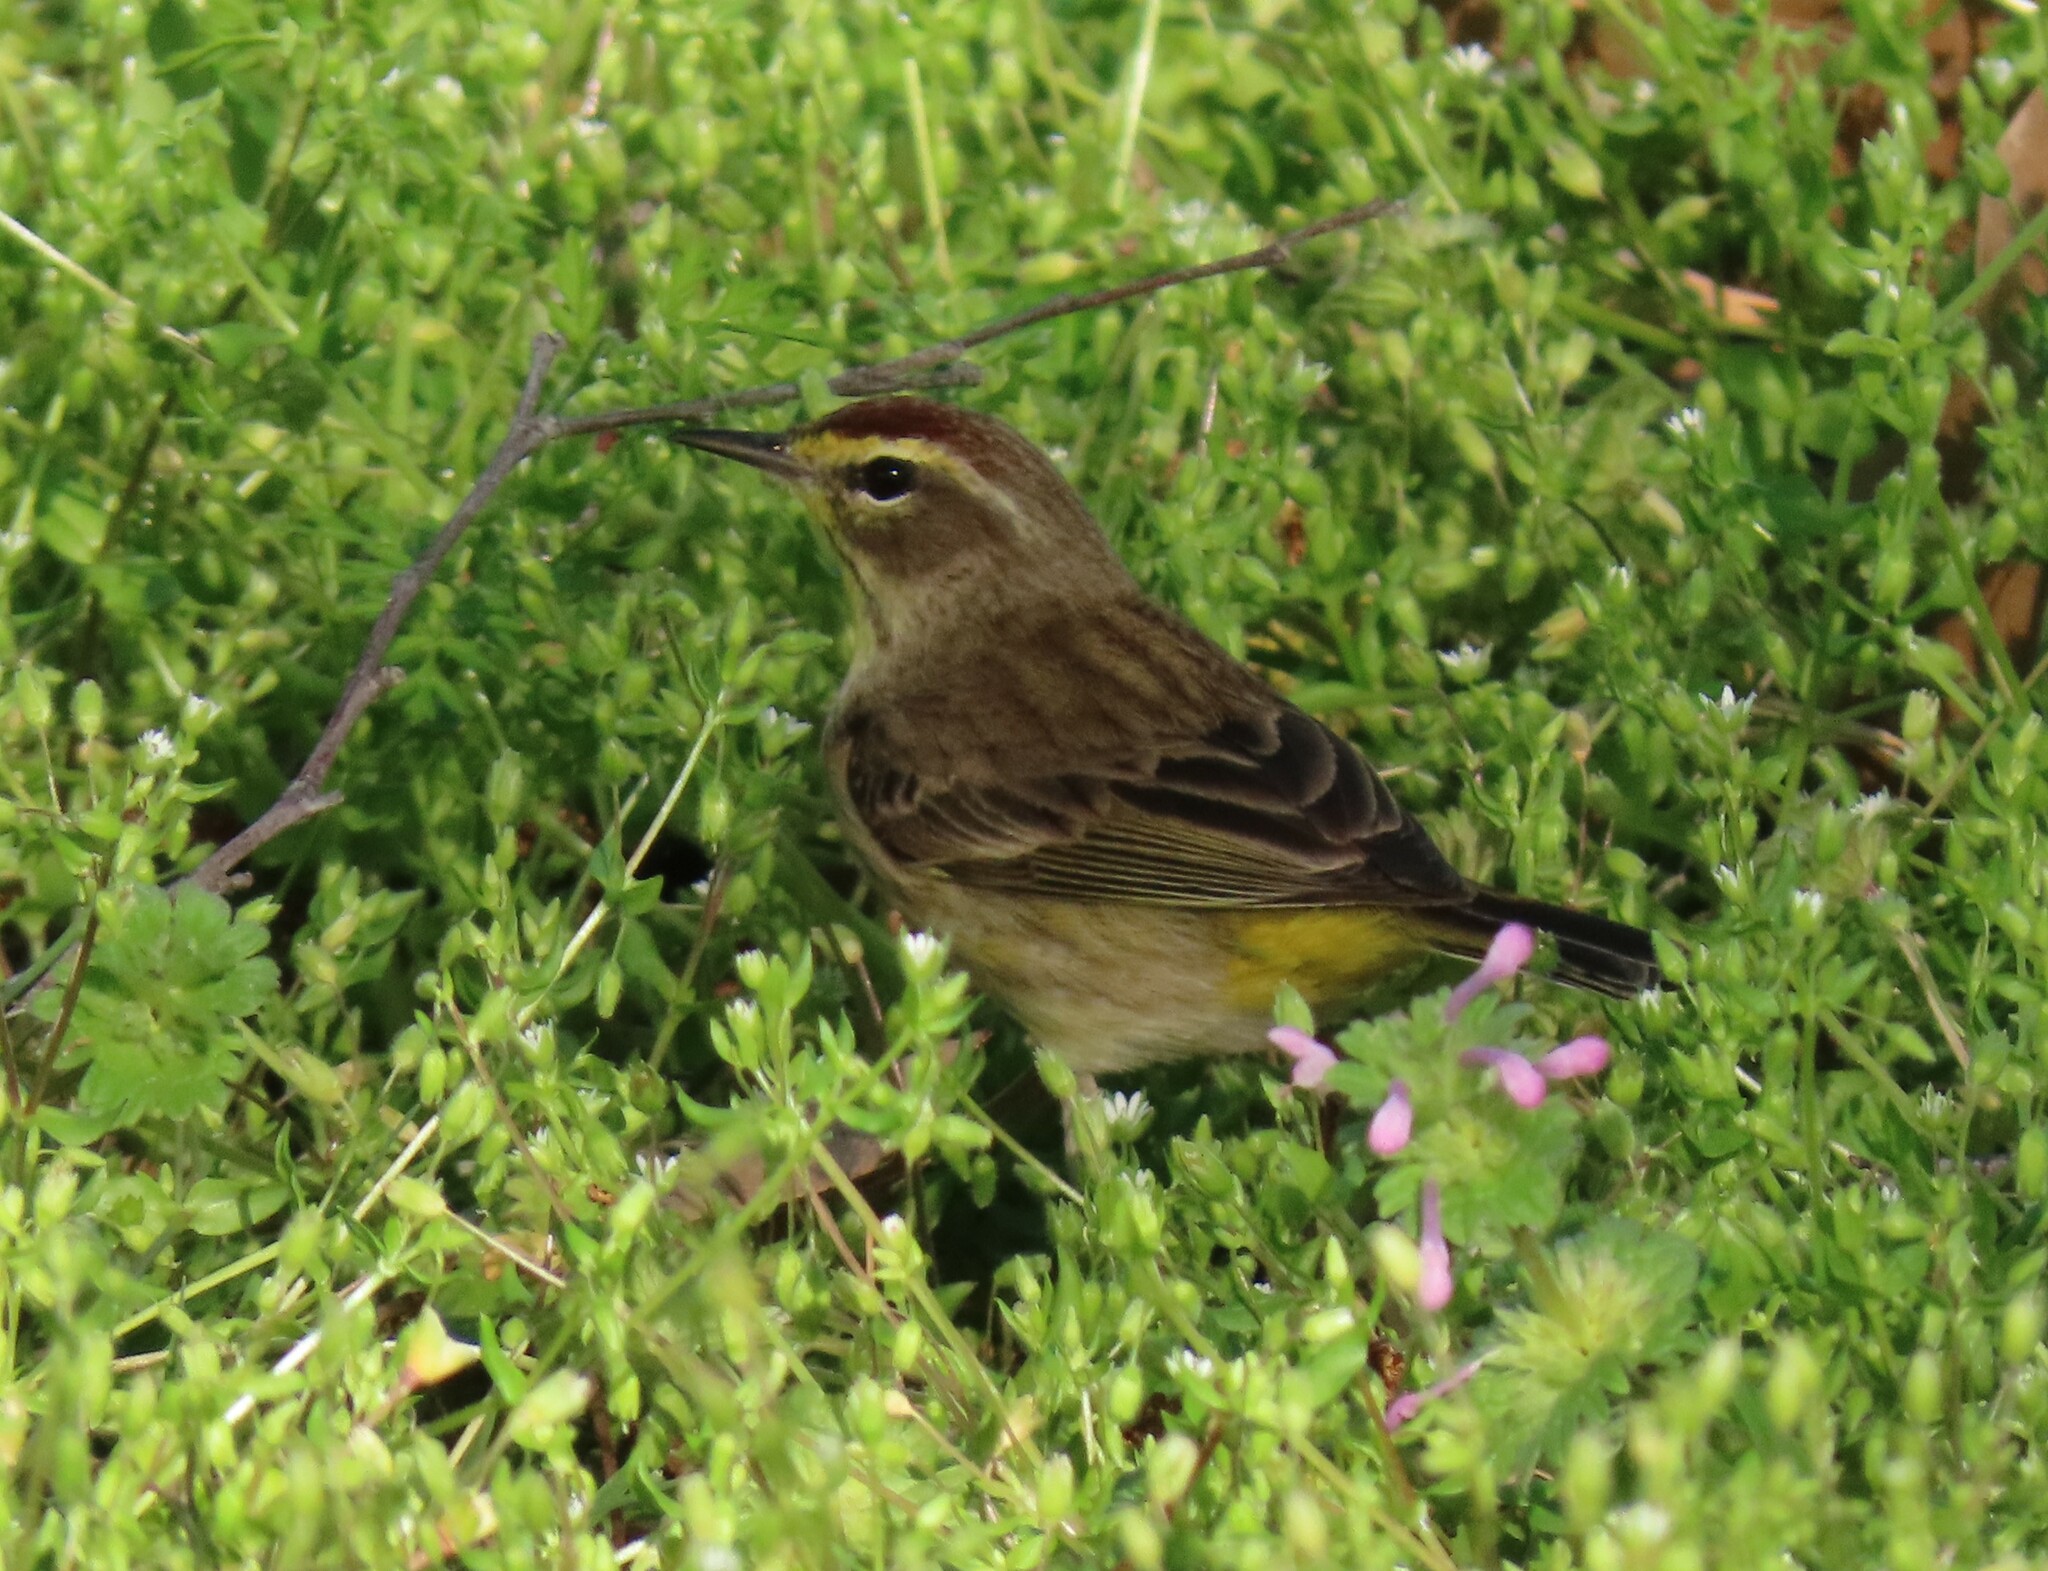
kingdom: Animalia
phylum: Chordata
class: Aves
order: Passeriformes
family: Parulidae
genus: Setophaga
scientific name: Setophaga palmarum
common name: Palm warbler
